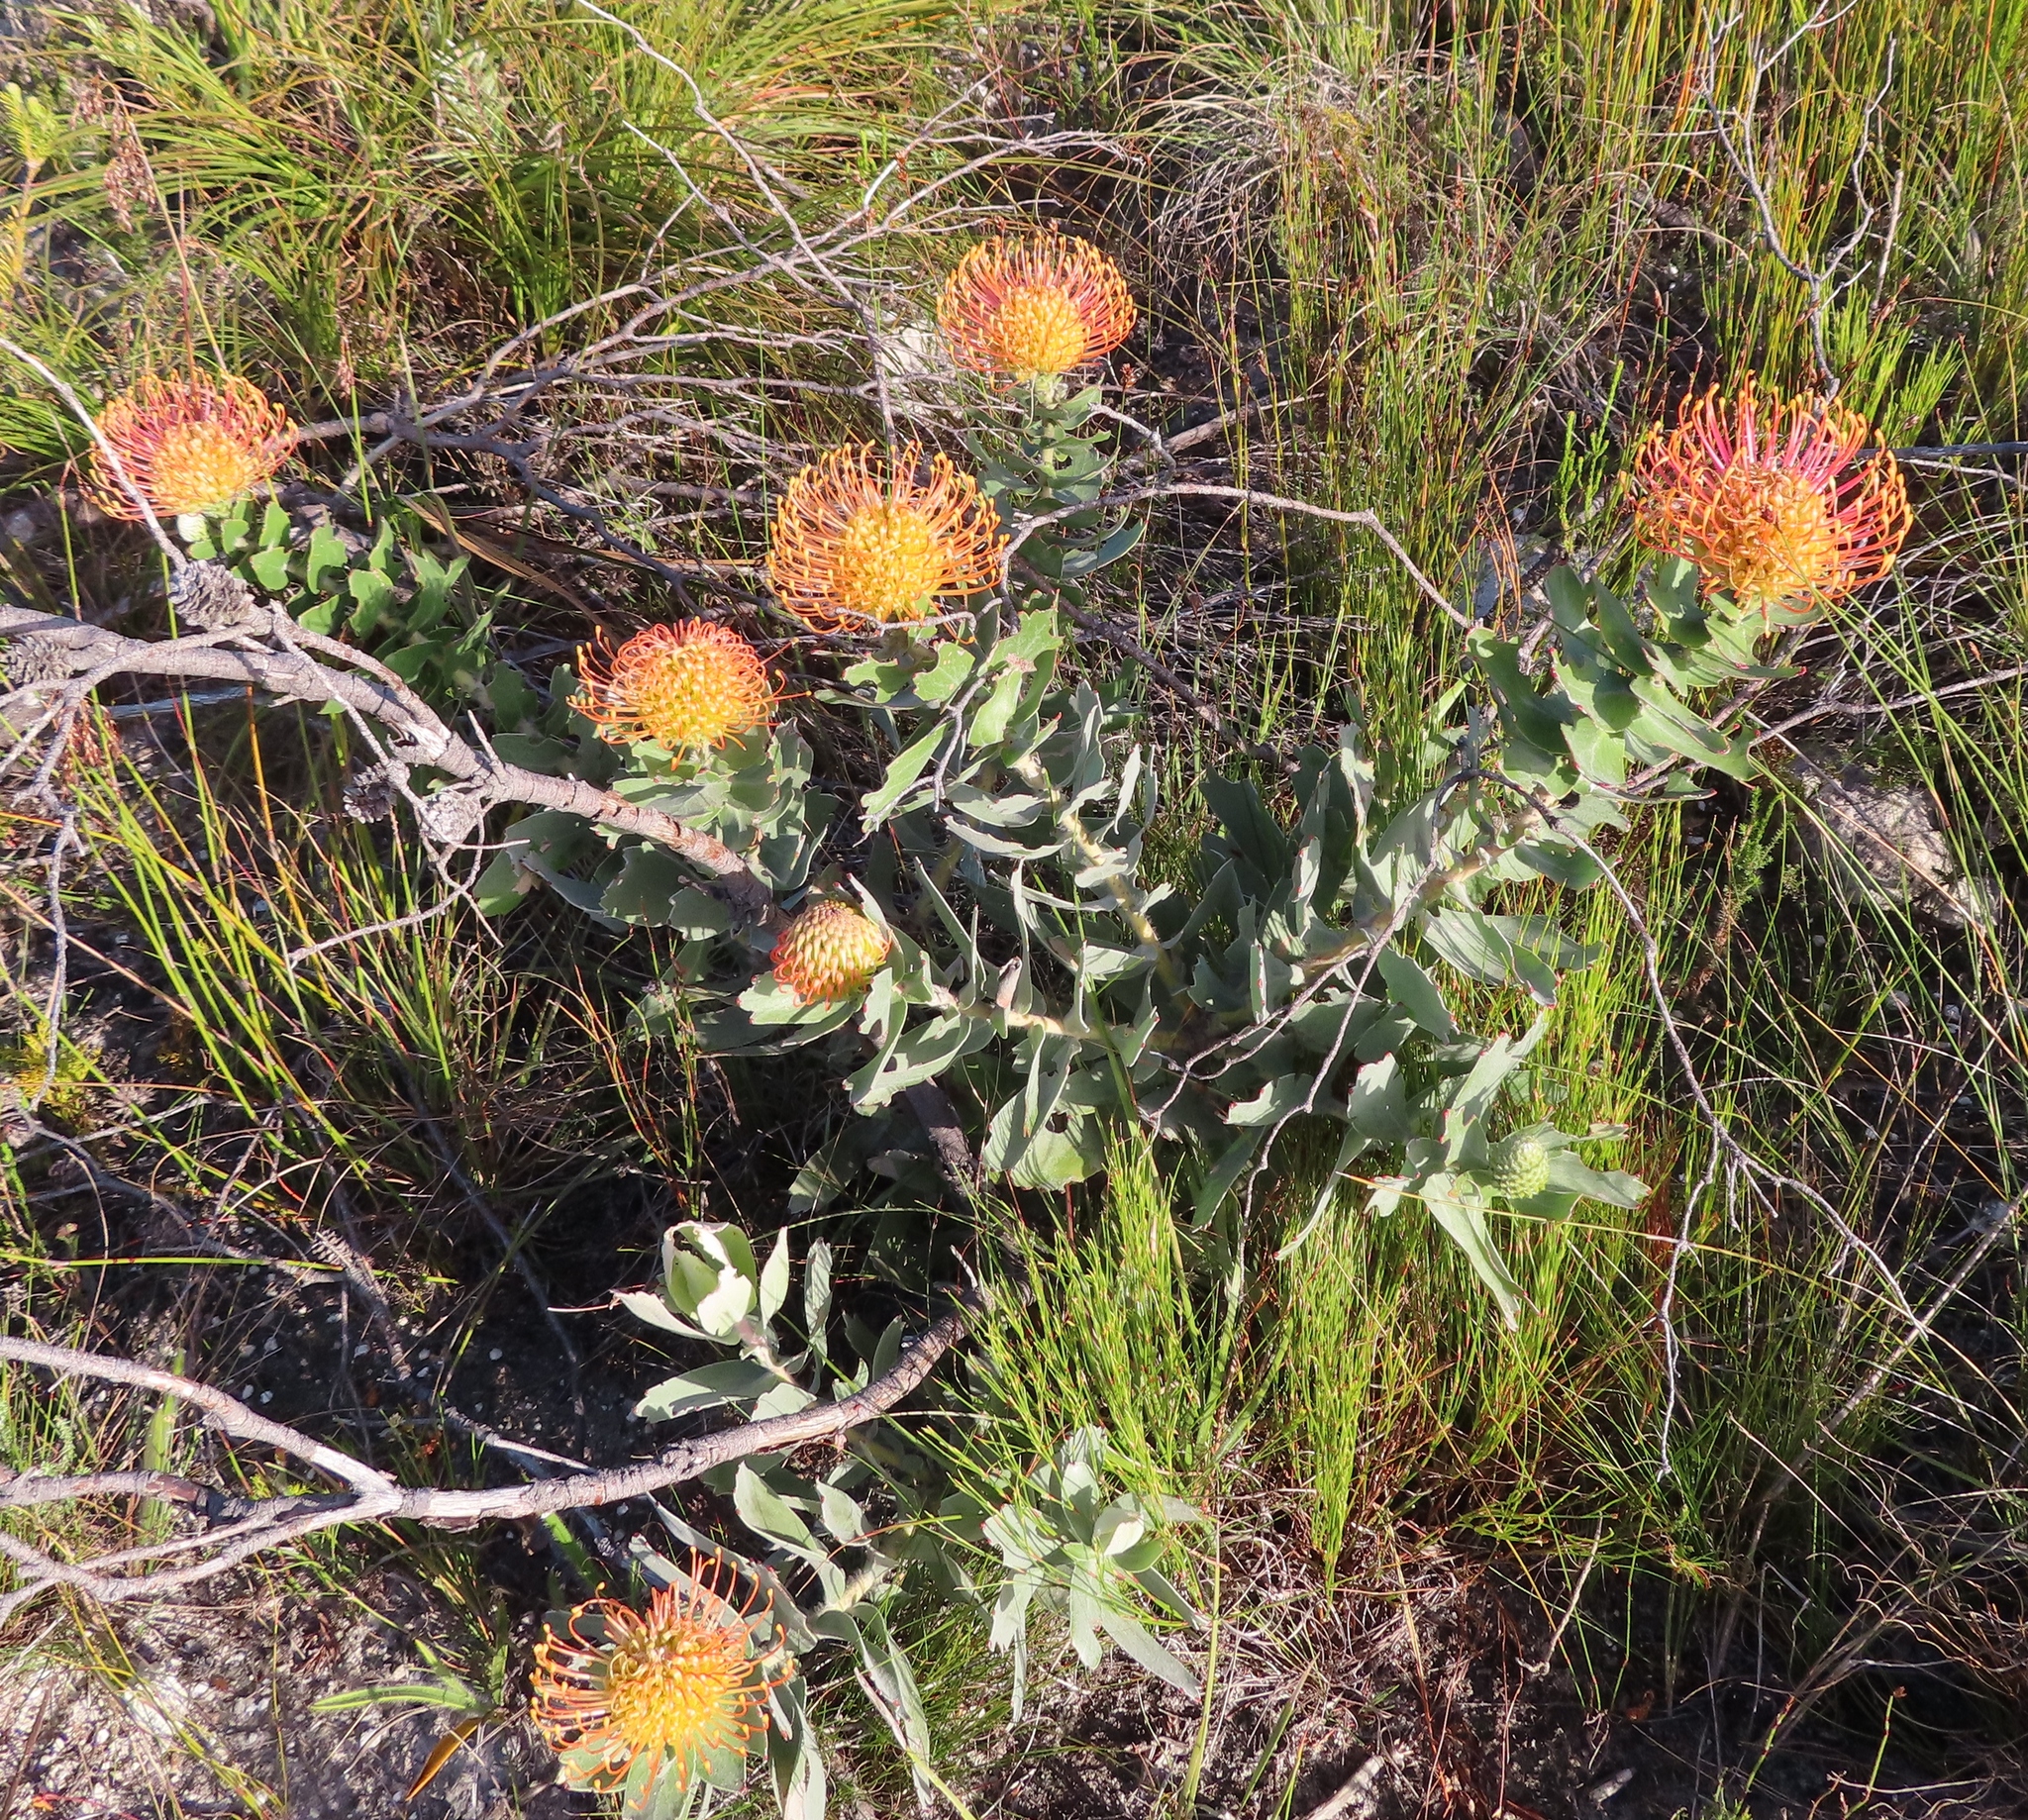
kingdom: Plantae
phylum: Tracheophyta
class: Magnoliopsida
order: Proteales
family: Proteaceae
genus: Leucospermum
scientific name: Leucospermum cordifolium
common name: Red pincushion-protea
